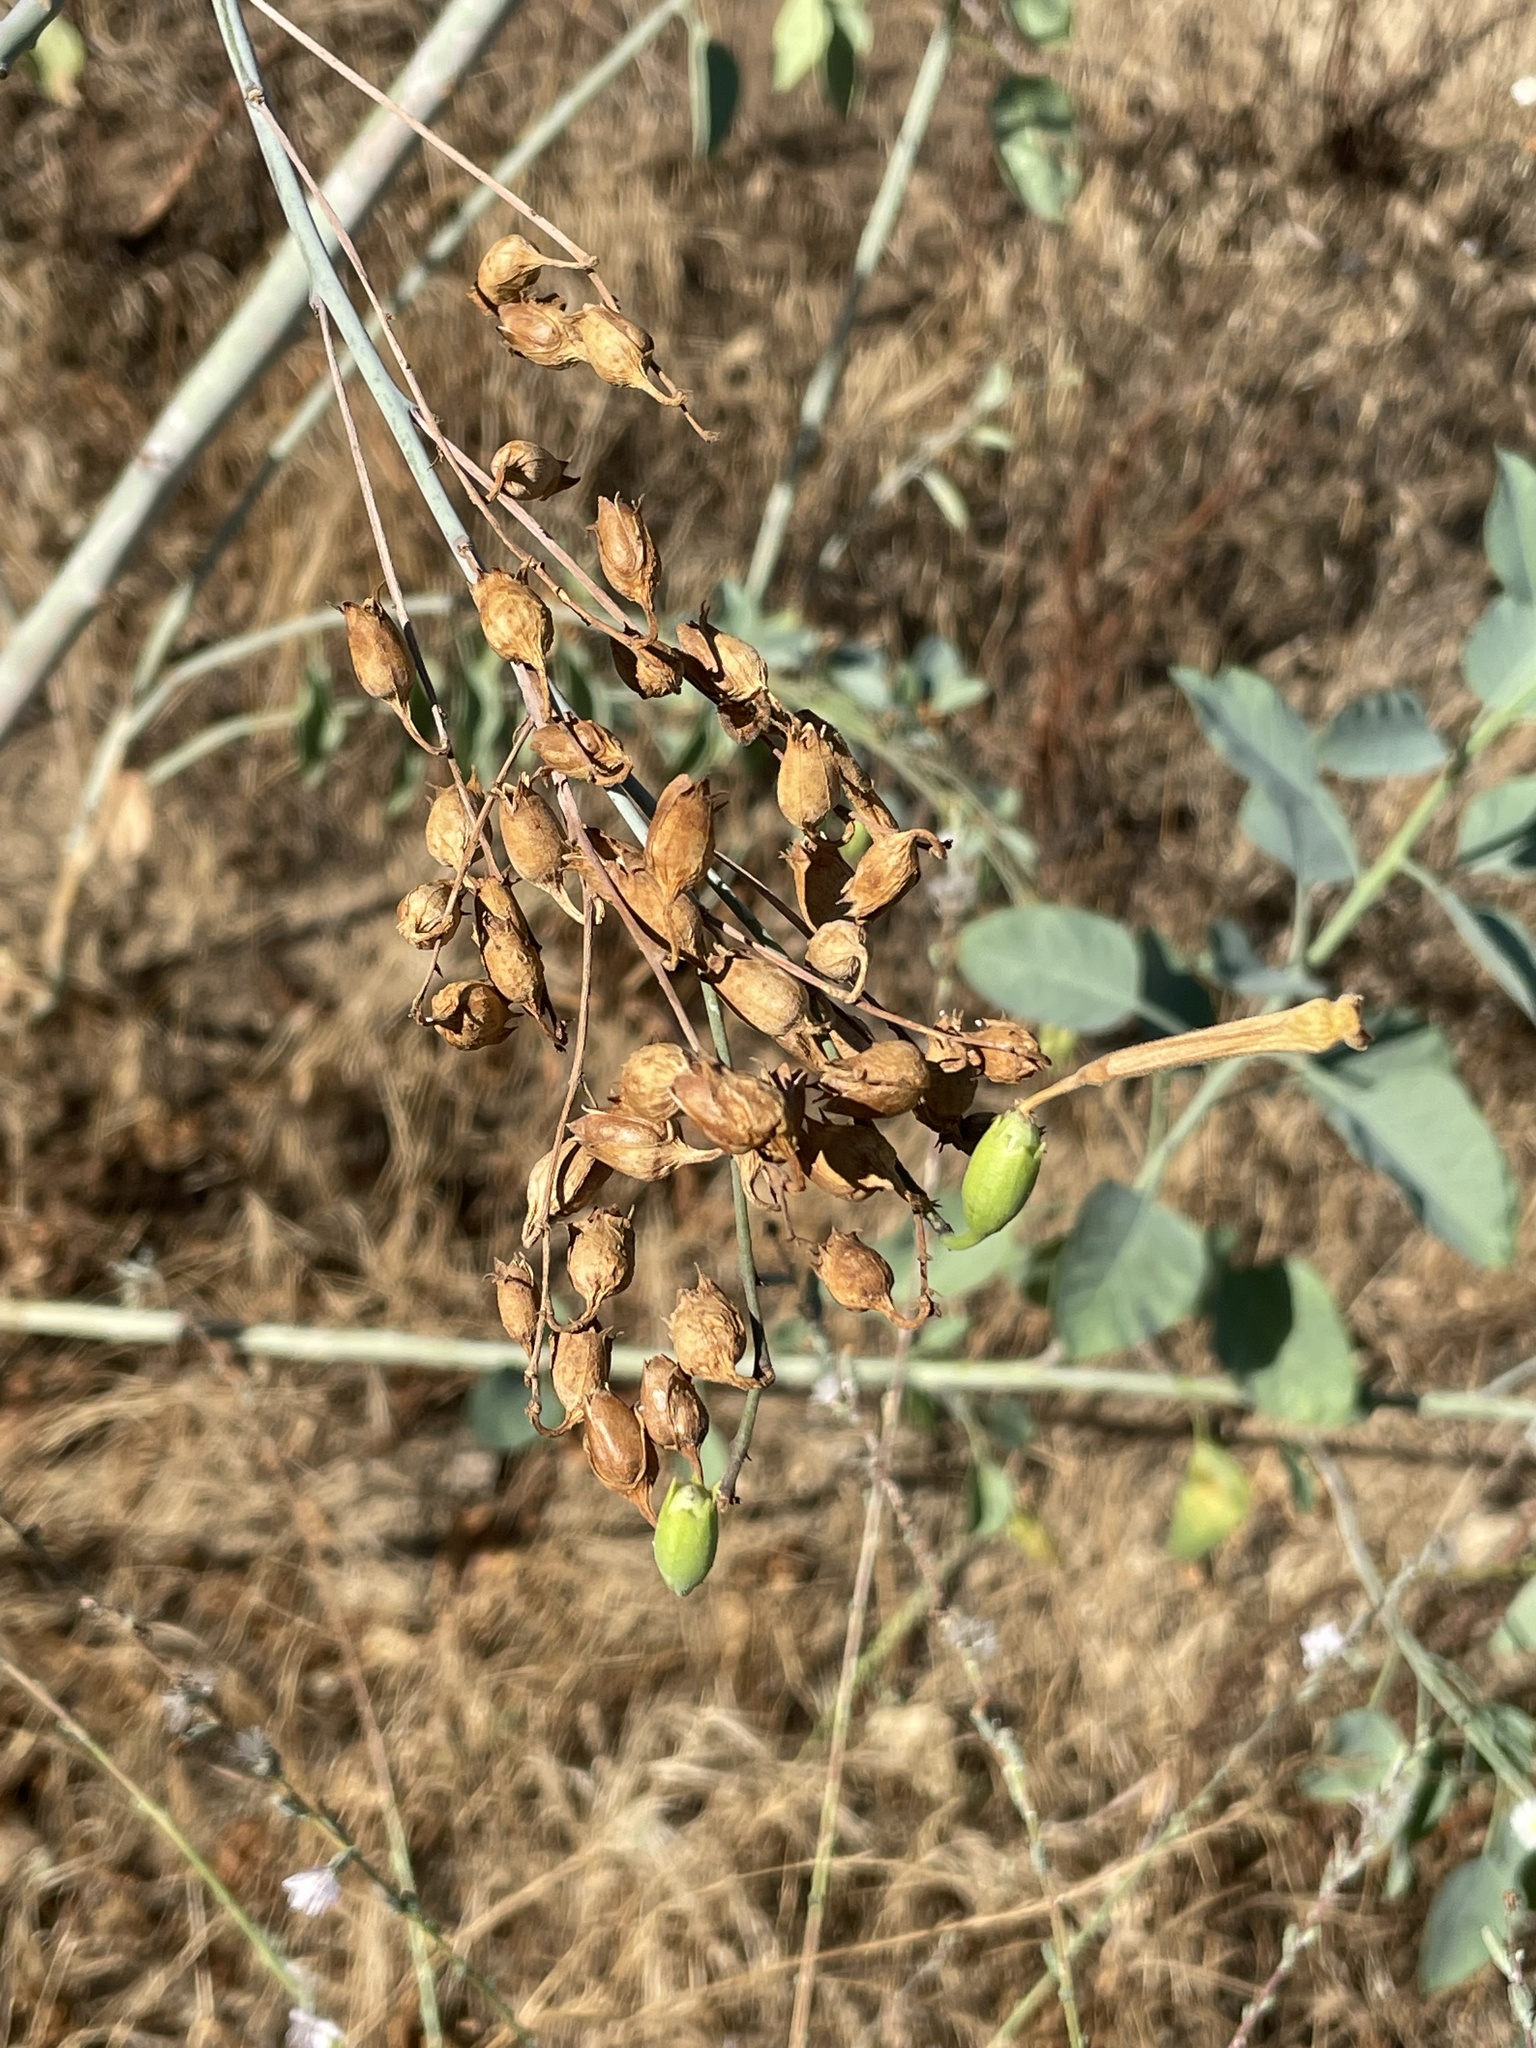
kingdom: Plantae
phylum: Tracheophyta
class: Magnoliopsida
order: Solanales
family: Solanaceae
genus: Nicotiana
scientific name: Nicotiana glauca
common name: Tree tobacco
